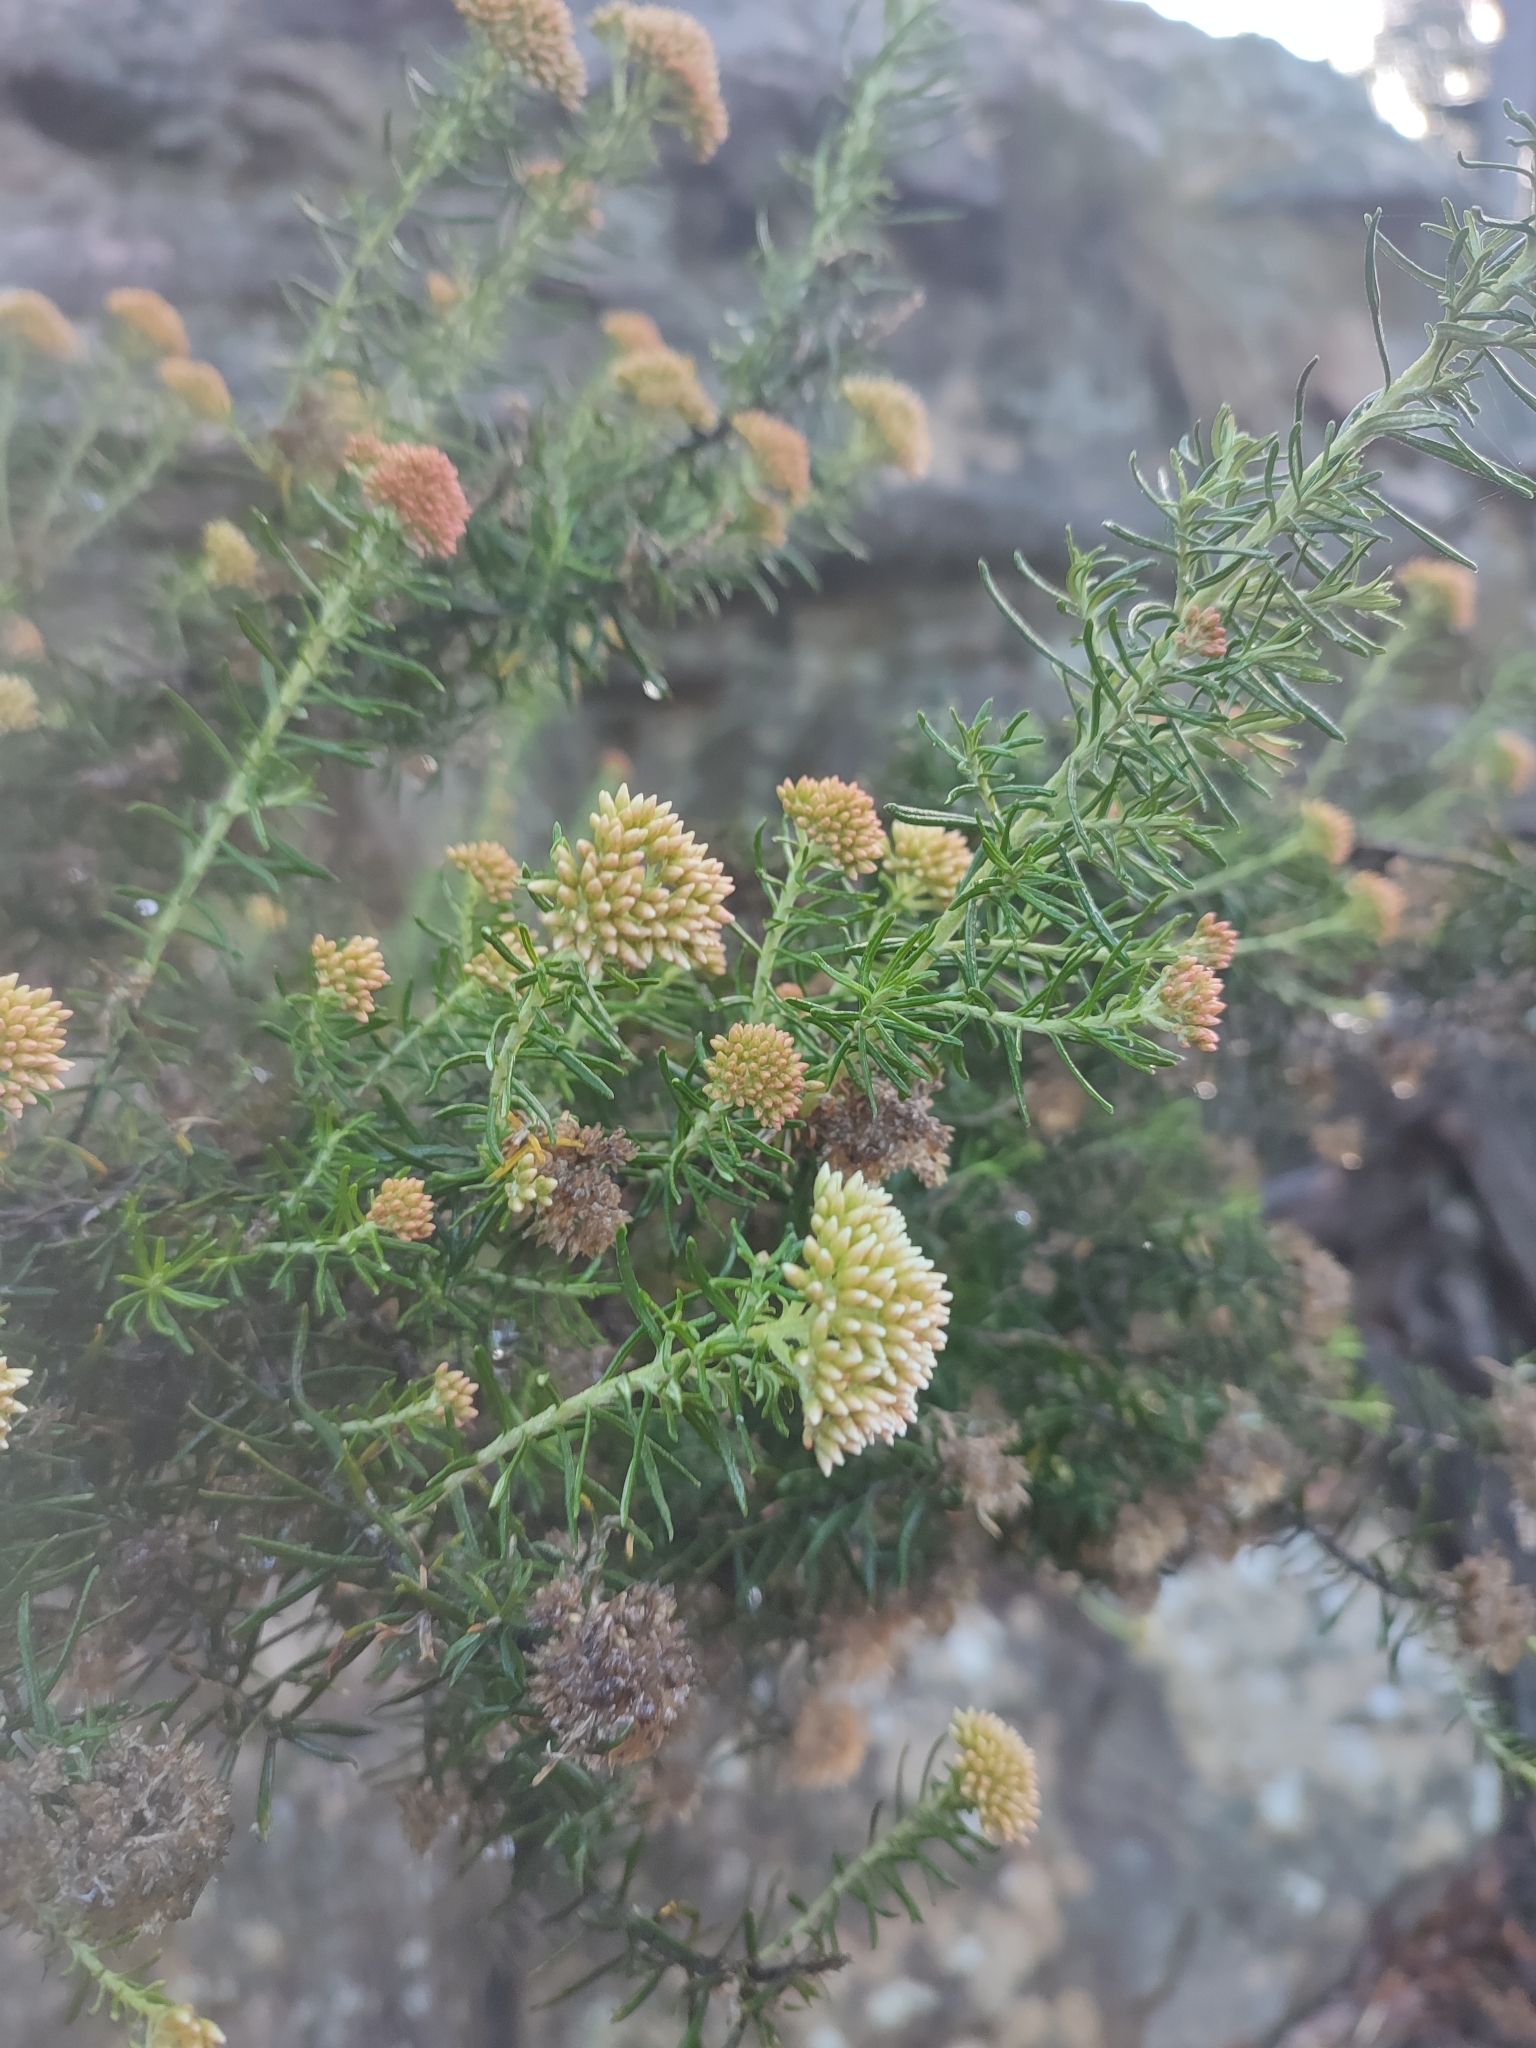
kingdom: Plantae
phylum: Tracheophyta
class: Magnoliopsida
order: Asterales
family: Asteraceae
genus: Cassinia
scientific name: Cassinia aculeata
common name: Australian tauhinu
